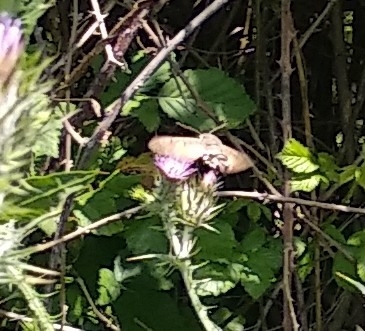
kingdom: Animalia
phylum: Arthropoda
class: Insecta
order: Lepidoptera
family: Sphingidae
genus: Macroglossum
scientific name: Macroglossum stellatarum
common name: Humming-bird hawk-moth
